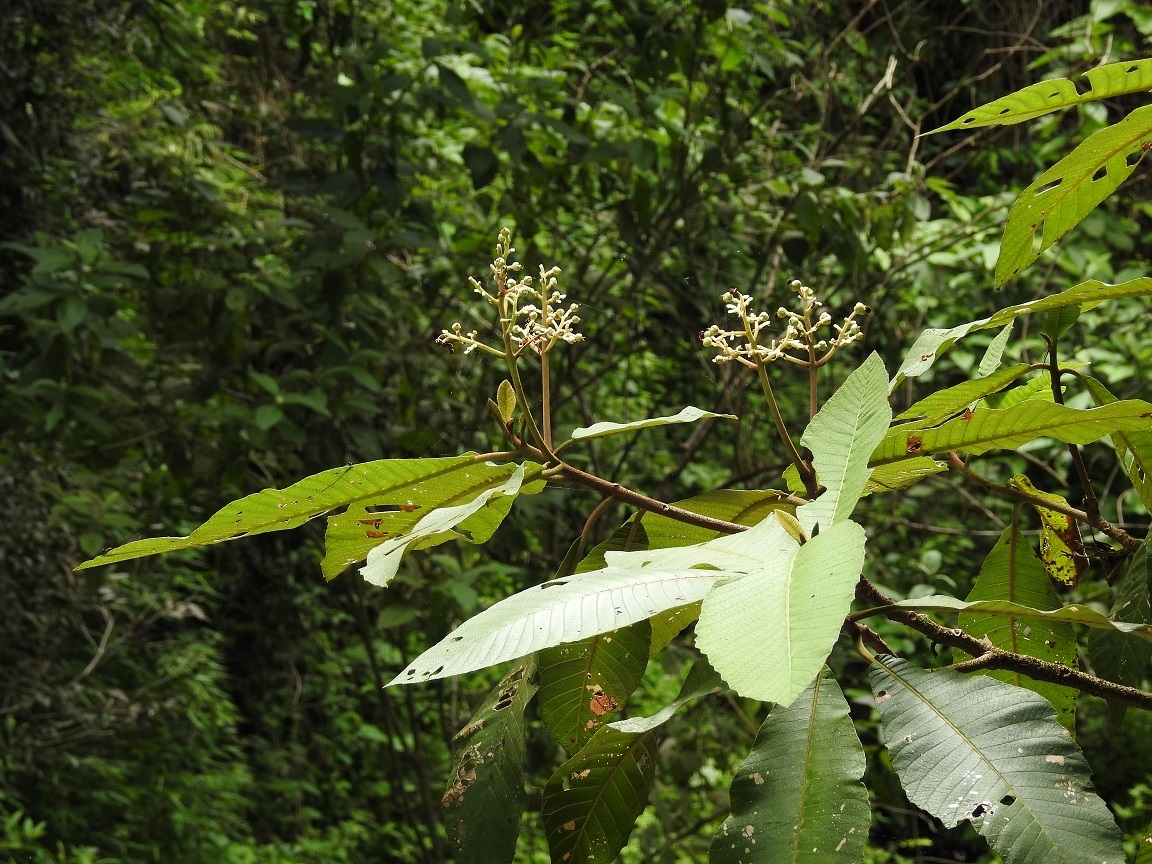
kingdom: Plantae
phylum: Tracheophyta
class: Magnoliopsida
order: Ericales
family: Actinidiaceae
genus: Saurauia
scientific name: Saurauia montana
